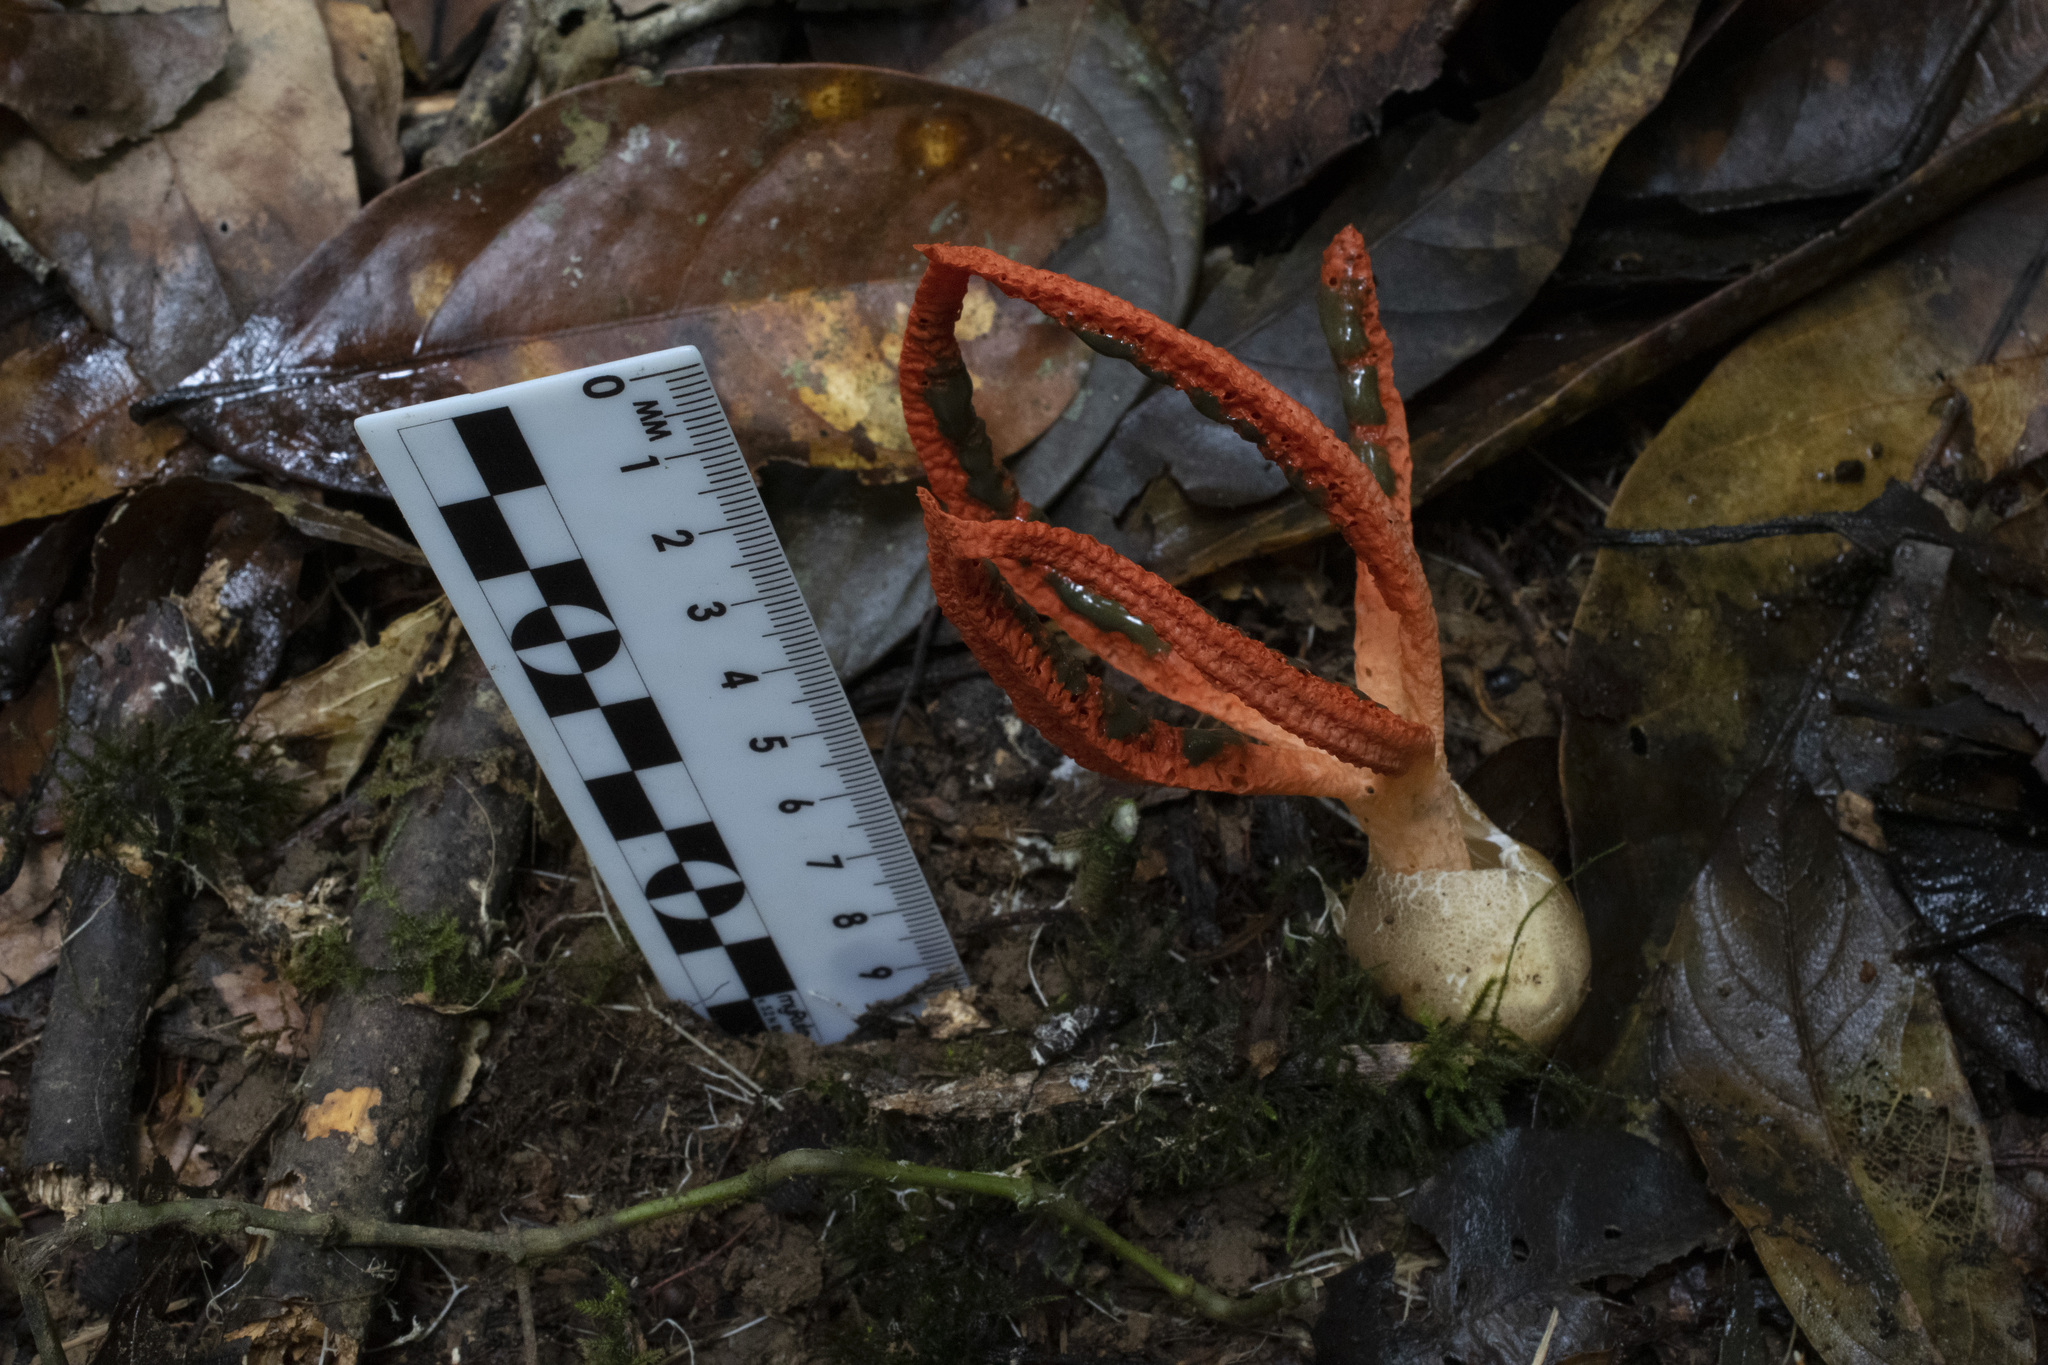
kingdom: Fungi
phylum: Basidiomycota
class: Agaricomycetes
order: Phallales
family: Phallaceae
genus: Pseudocolus
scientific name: Pseudocolus fusiformis
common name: Stinky squid
